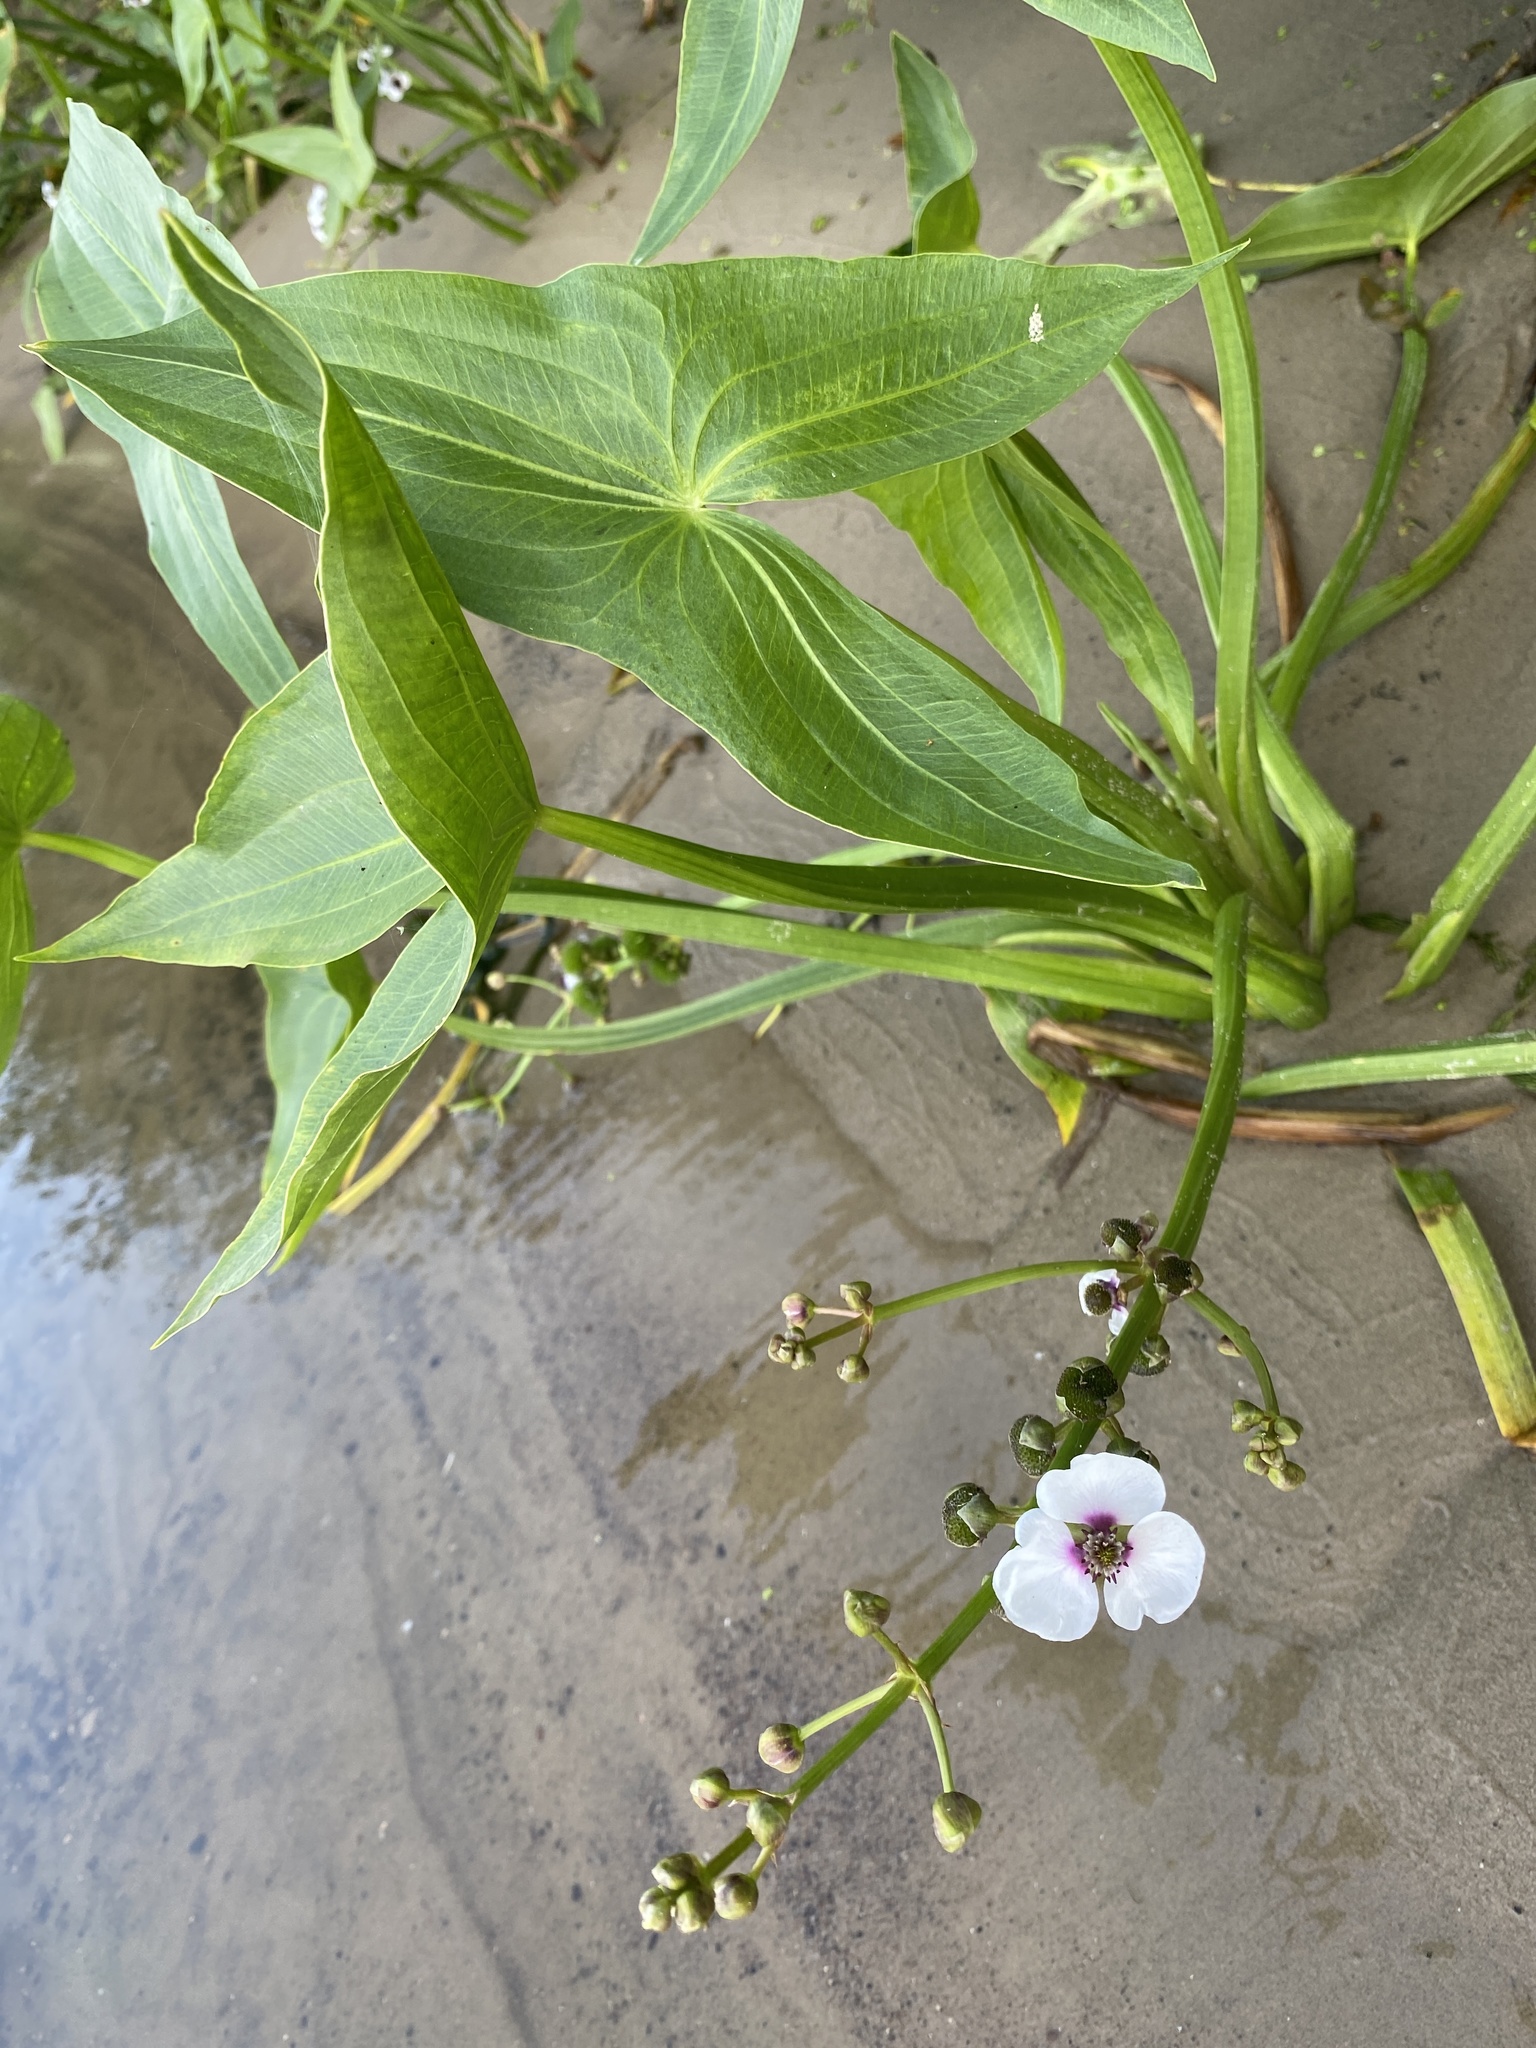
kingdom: Plantae
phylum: Tracheophyta
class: Liliopsida
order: Alismatales
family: Alismataceae
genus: Sagittaria
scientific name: Sagittaria sagittifolia
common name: Arrowhead
